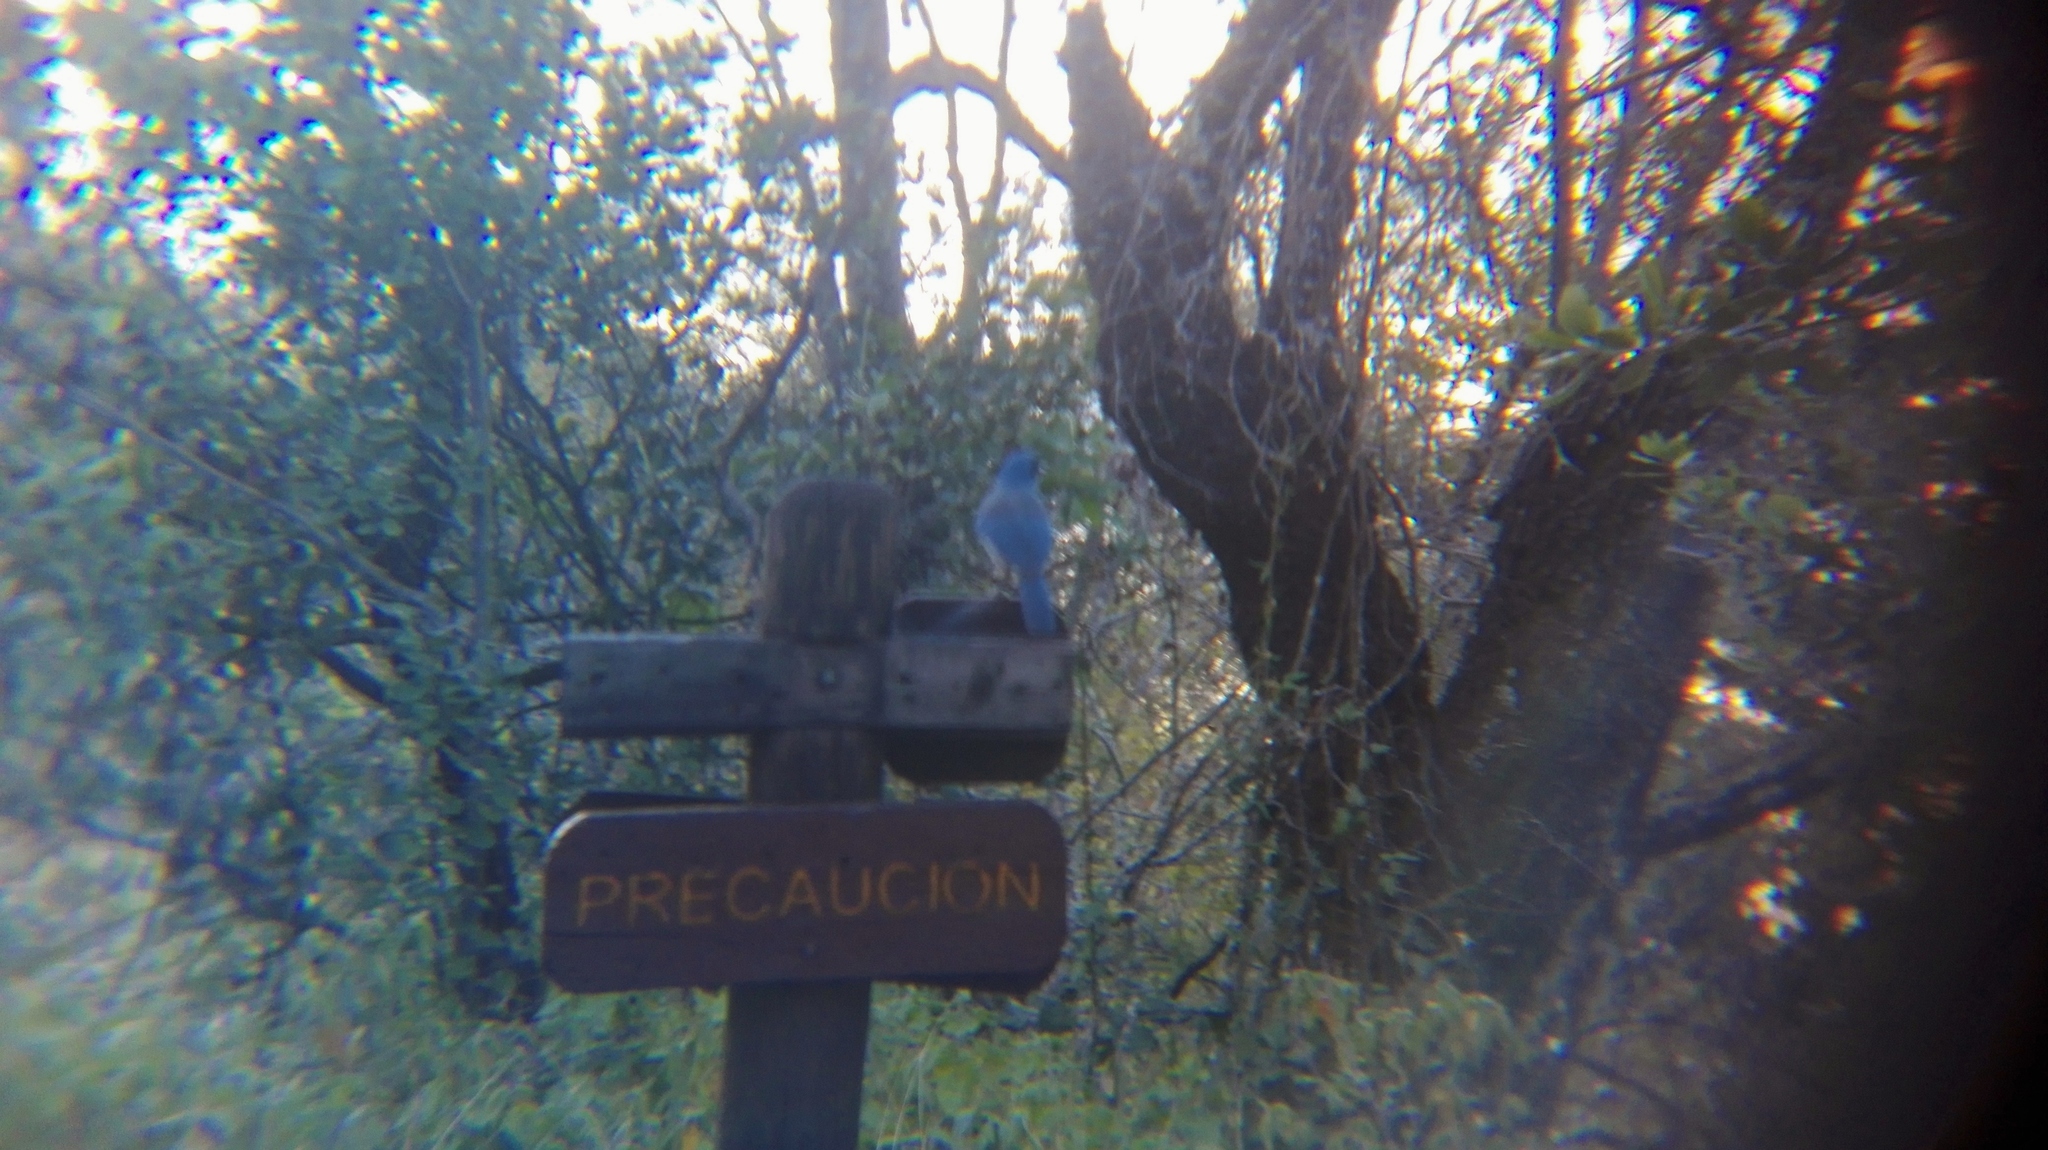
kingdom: Animalia
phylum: Chordata
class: Aves
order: Passeriformes
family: Corvidae
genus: Aphelocoma
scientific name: Aphelocoma wollweberi
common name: Mexican jay
